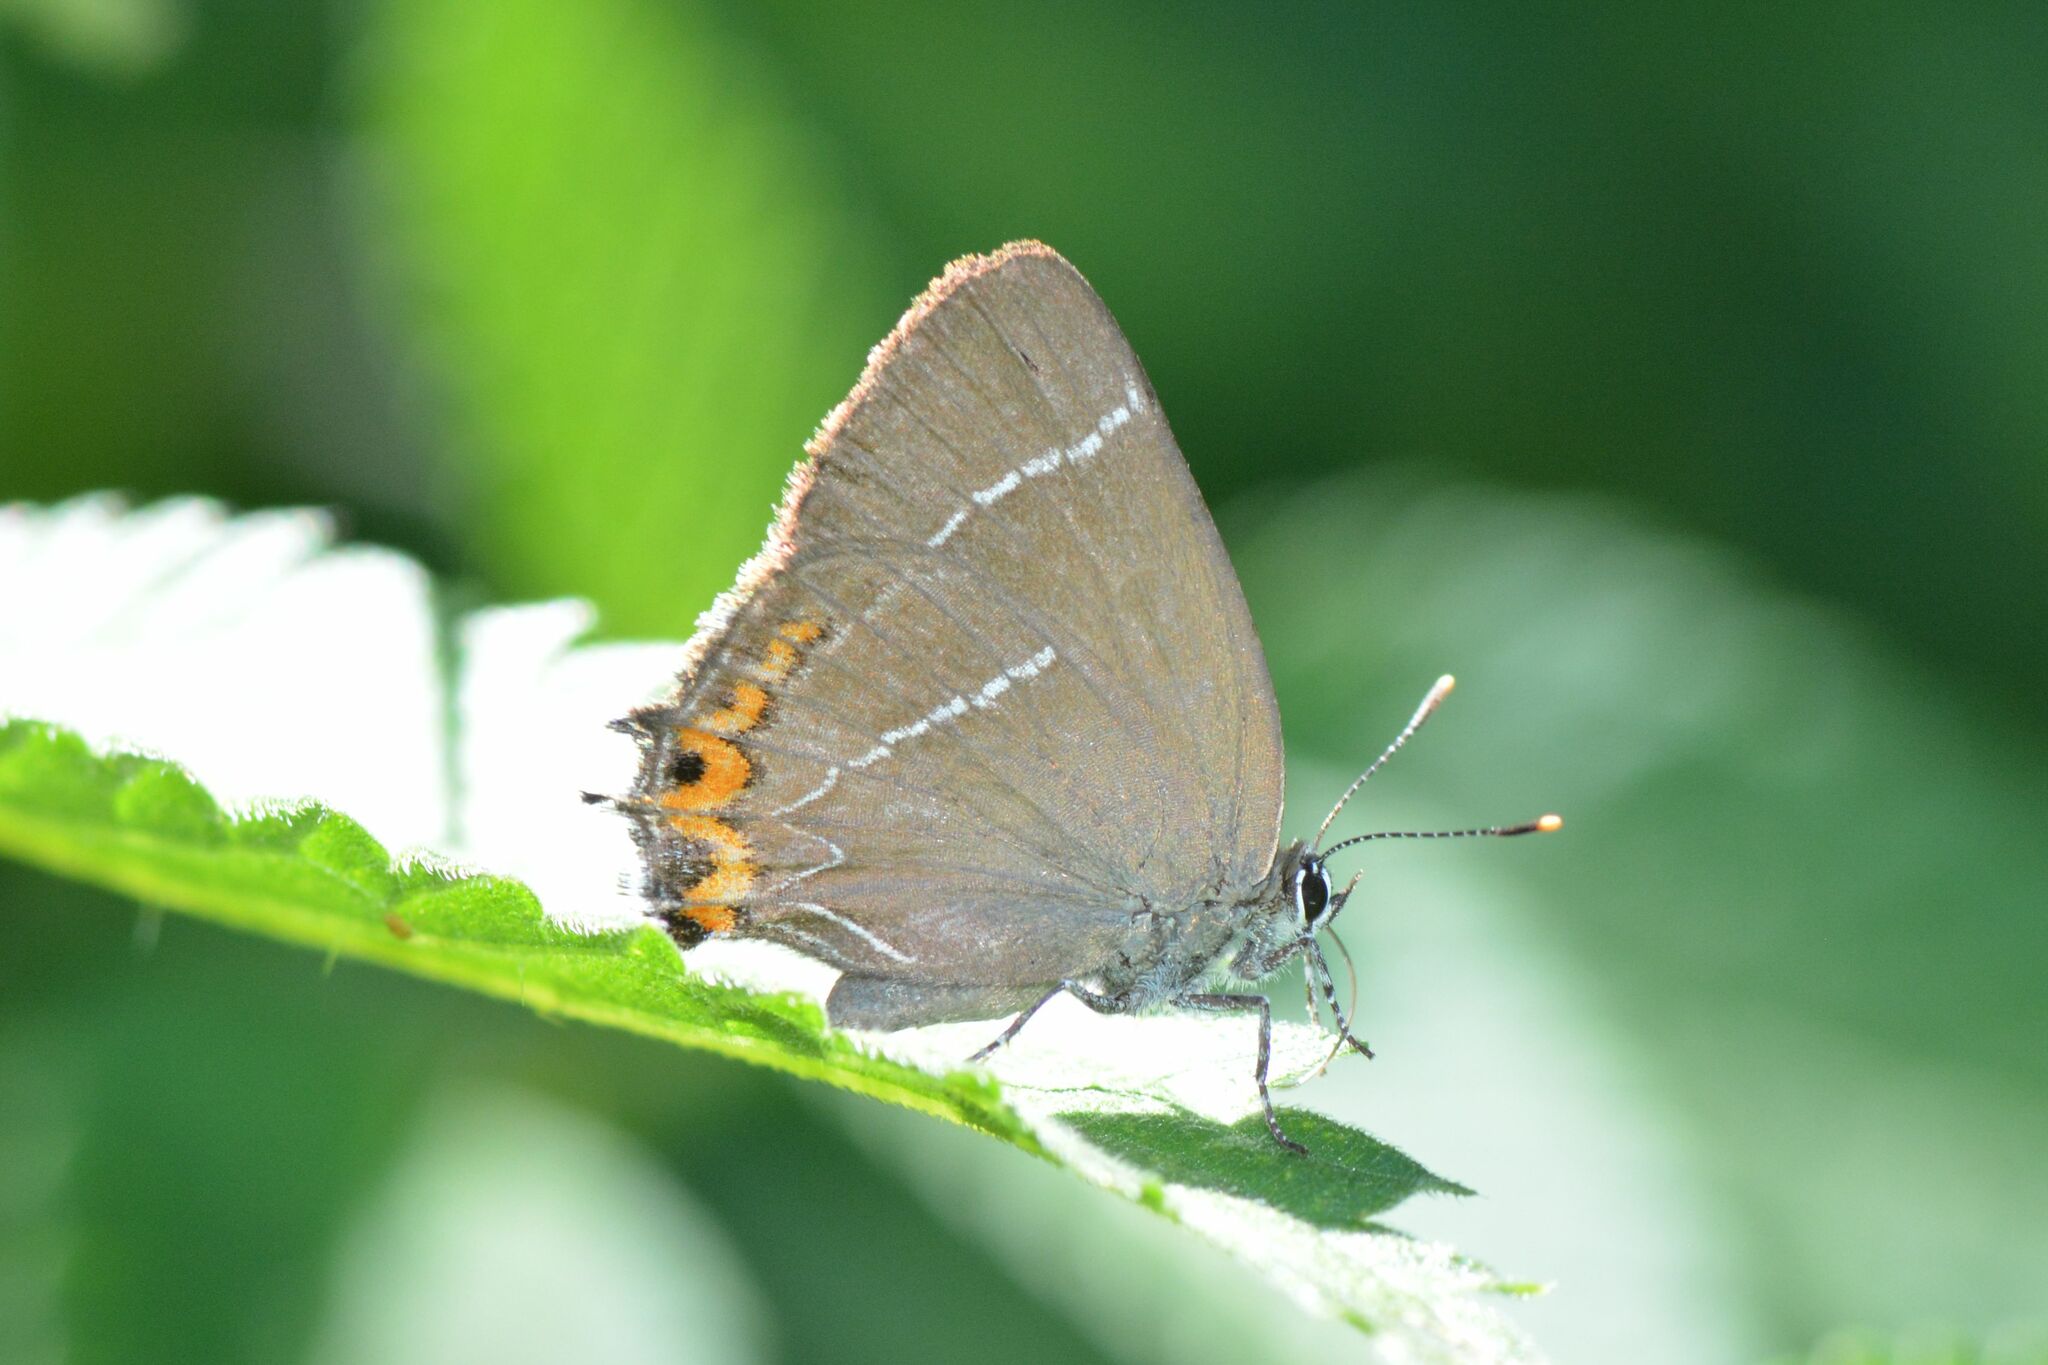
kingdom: Animalia
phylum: Arthropoda
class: Insecta
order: Lepidoptera
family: Lycaenidae
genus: Satyrium
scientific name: Satyrium w-album
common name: White-letter hairstreak
